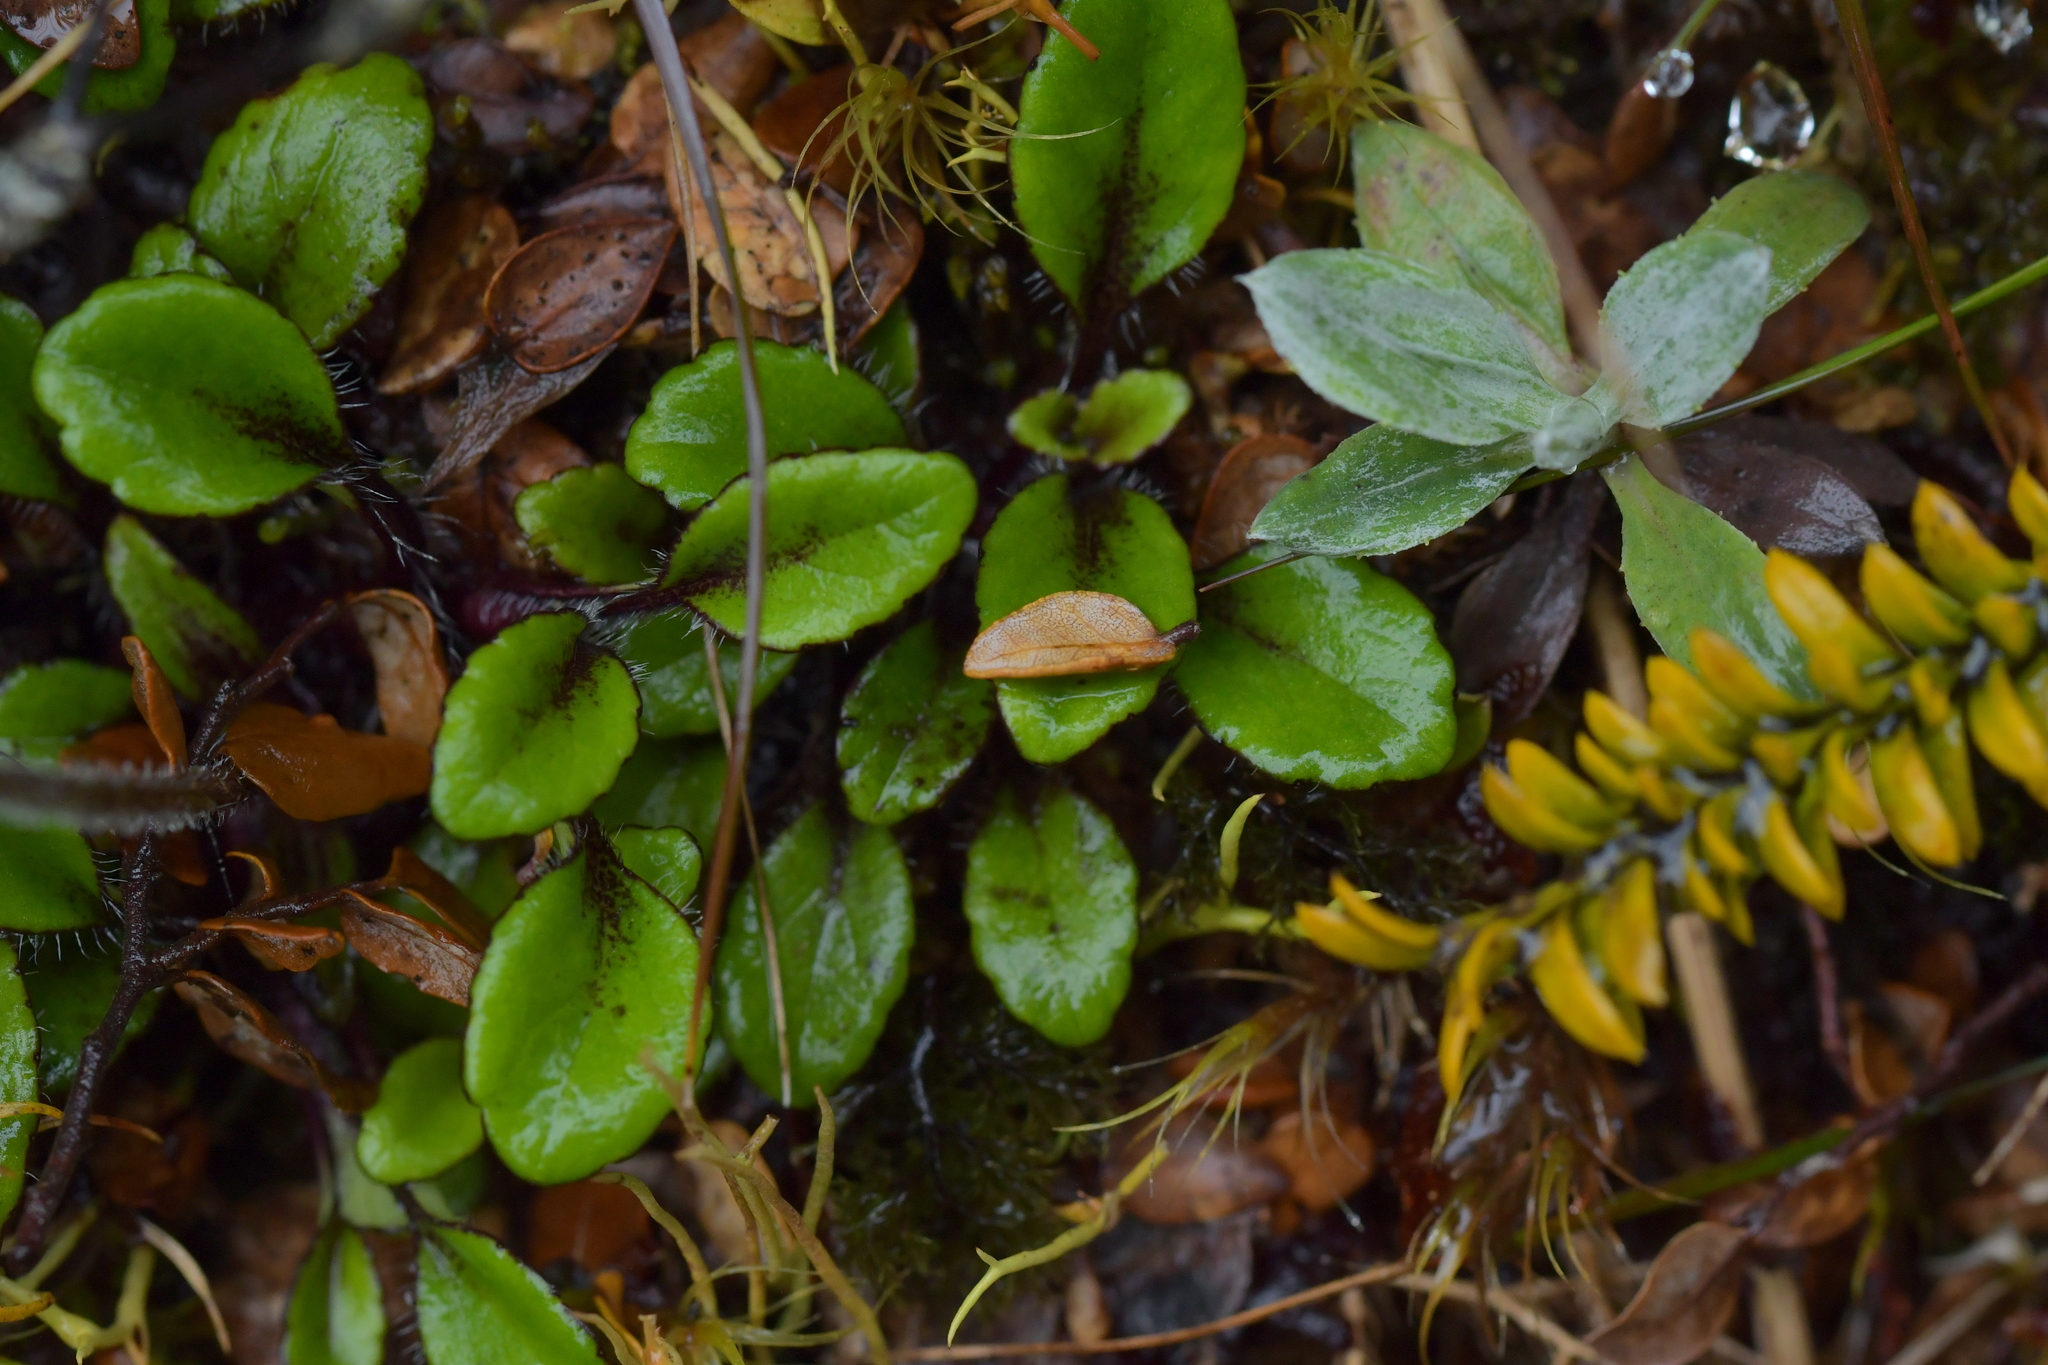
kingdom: Plantae
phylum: Tracheophyta
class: Magnoliopsida
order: Lamiales
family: Plantaginaceae
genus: Ourisia
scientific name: Ourisia vulcanica
